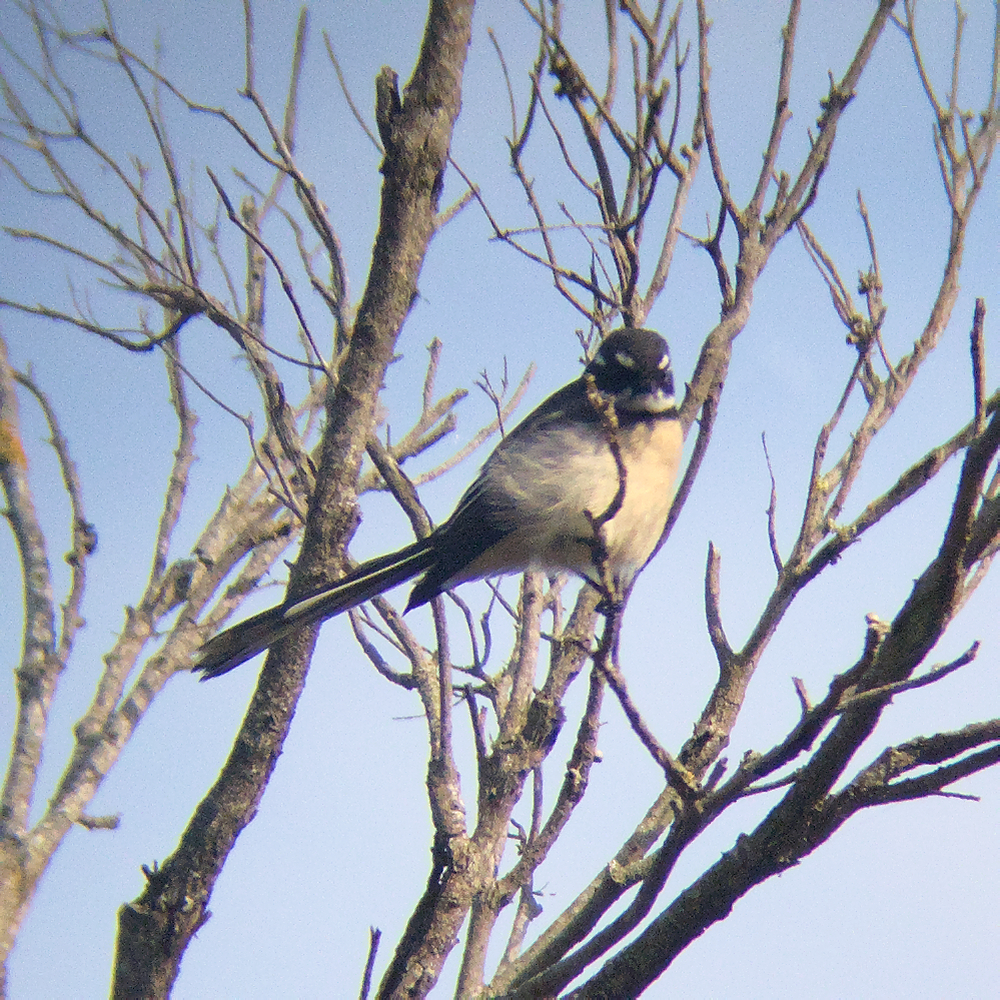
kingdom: Animalia
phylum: Chordata
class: Aves
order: Passeriformes
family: Rhipiduridae
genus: Rhipidura
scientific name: Rhipidura albiscapa
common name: Grey fantail
